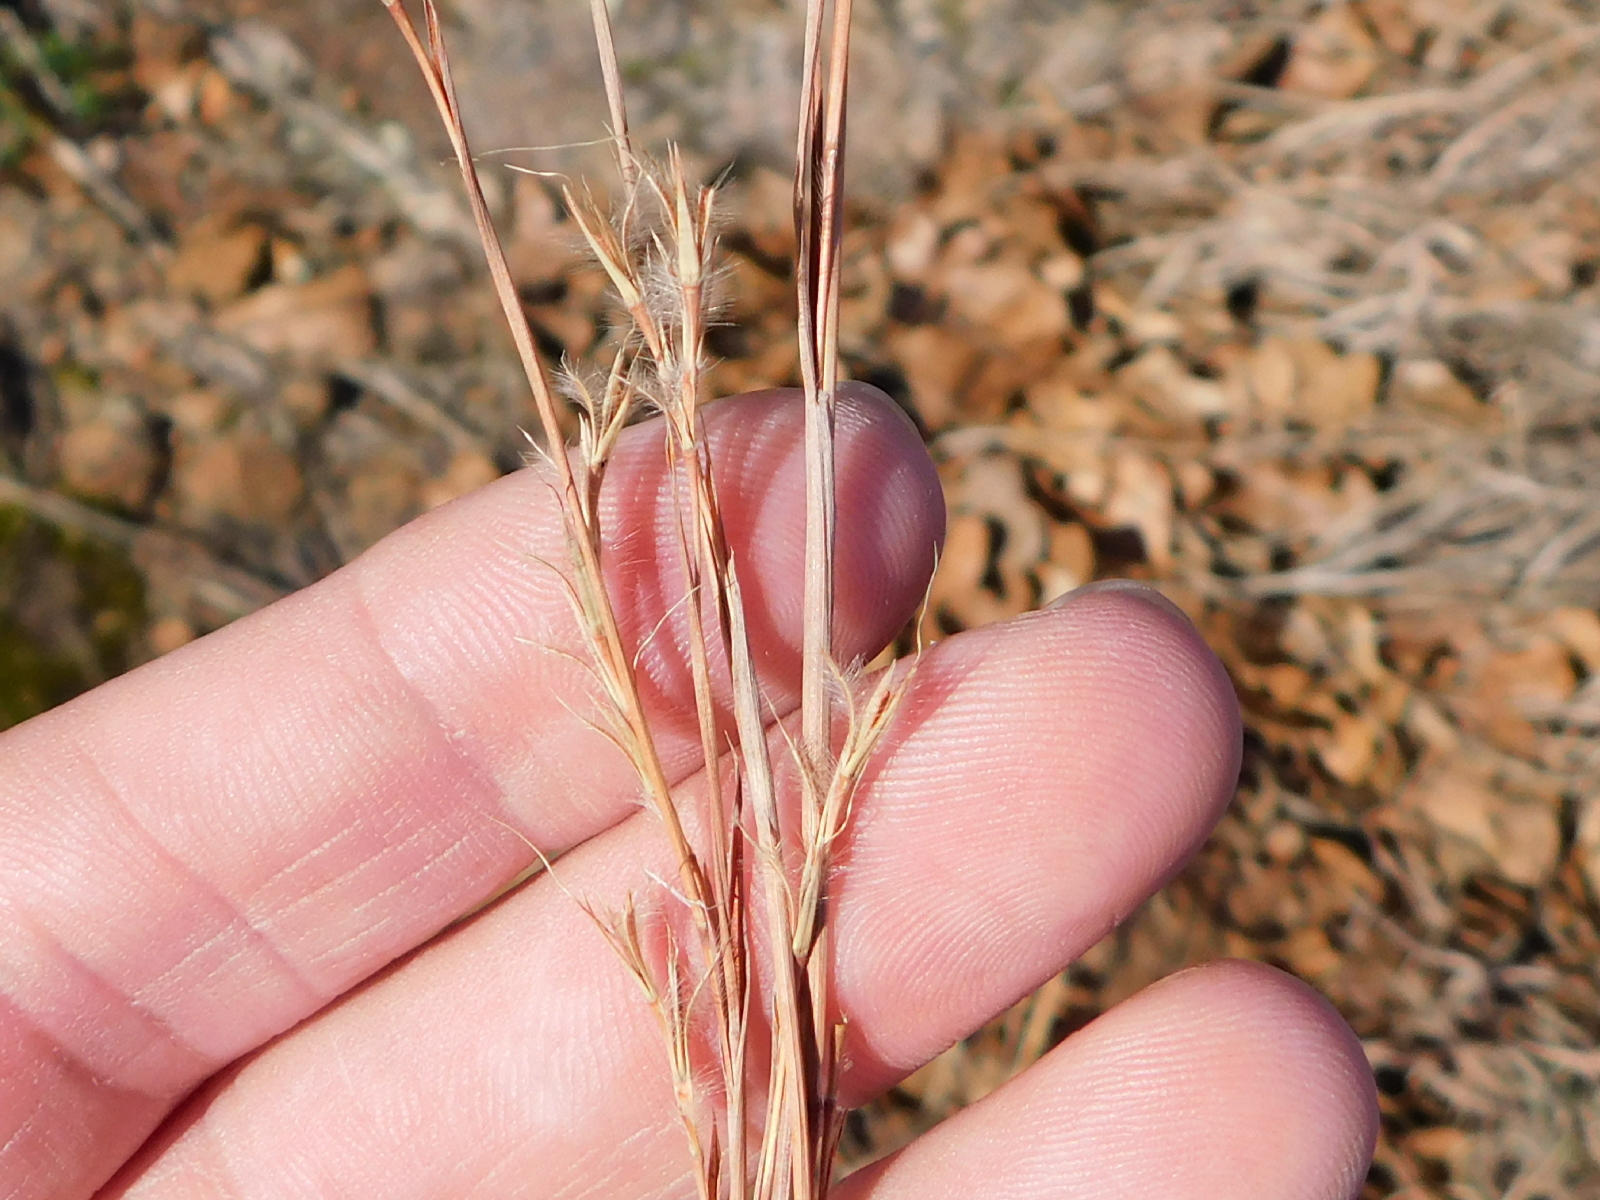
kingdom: Plantae
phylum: Tracheophyta
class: Liliopsida
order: Poales
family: Poaceae
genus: Schizachyrium
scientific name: Schizachyrium scoparium
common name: Little bluestem
